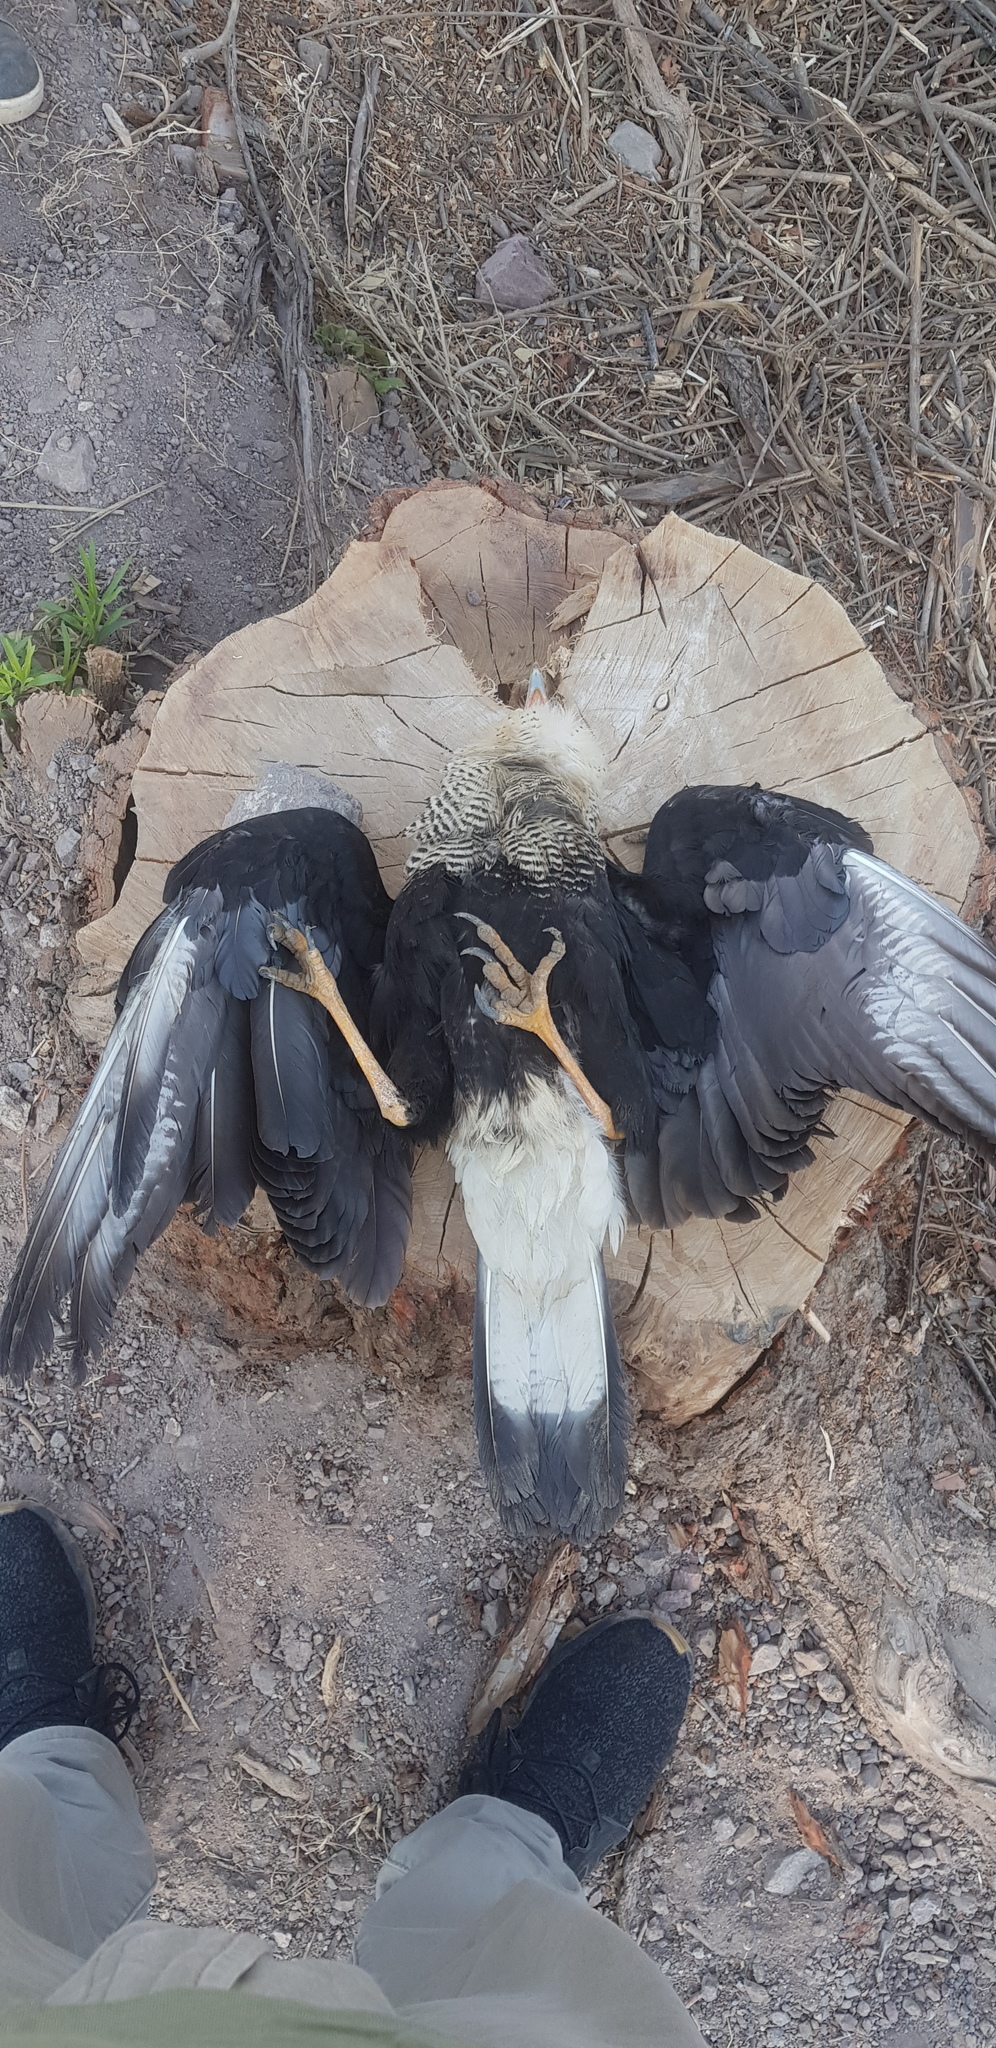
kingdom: Animalia
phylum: Chordata
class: Aves
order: Falconiformes
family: Falconidae
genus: Caracara
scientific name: Caracara plancus
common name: Southern caracara
